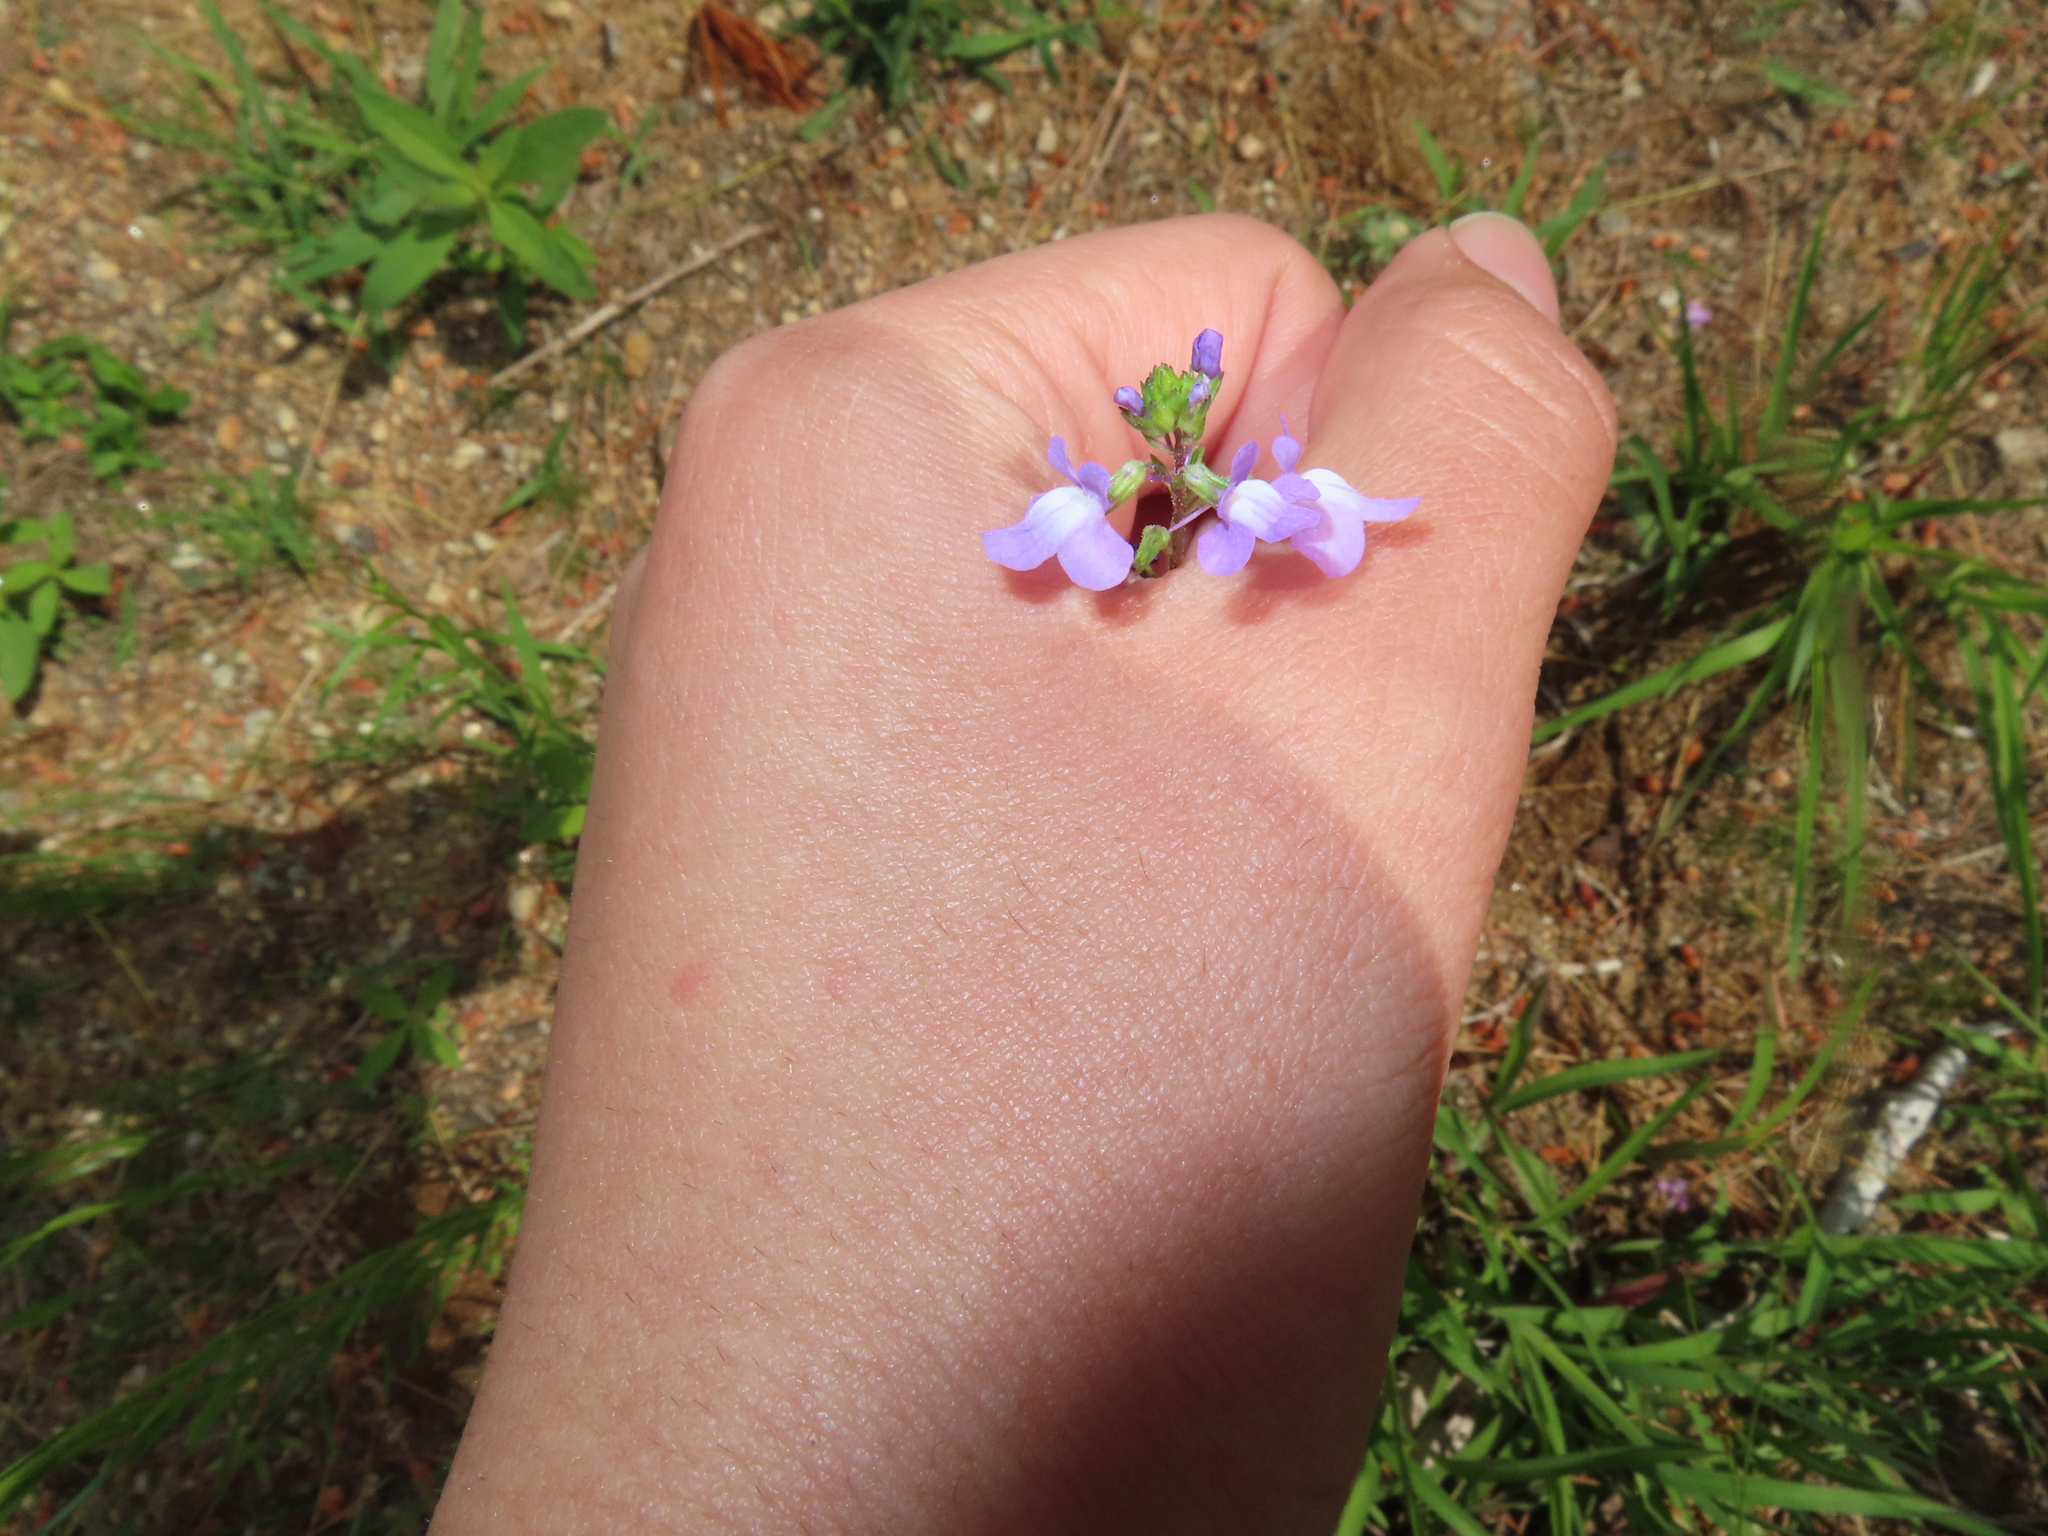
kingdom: Plantae
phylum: Tracheophyta
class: Magnoliopsida
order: Lamiales
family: Plantaginaceae
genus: Nuttallanthus
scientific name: Nuttallanthus canadensis
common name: Blue toadflax
